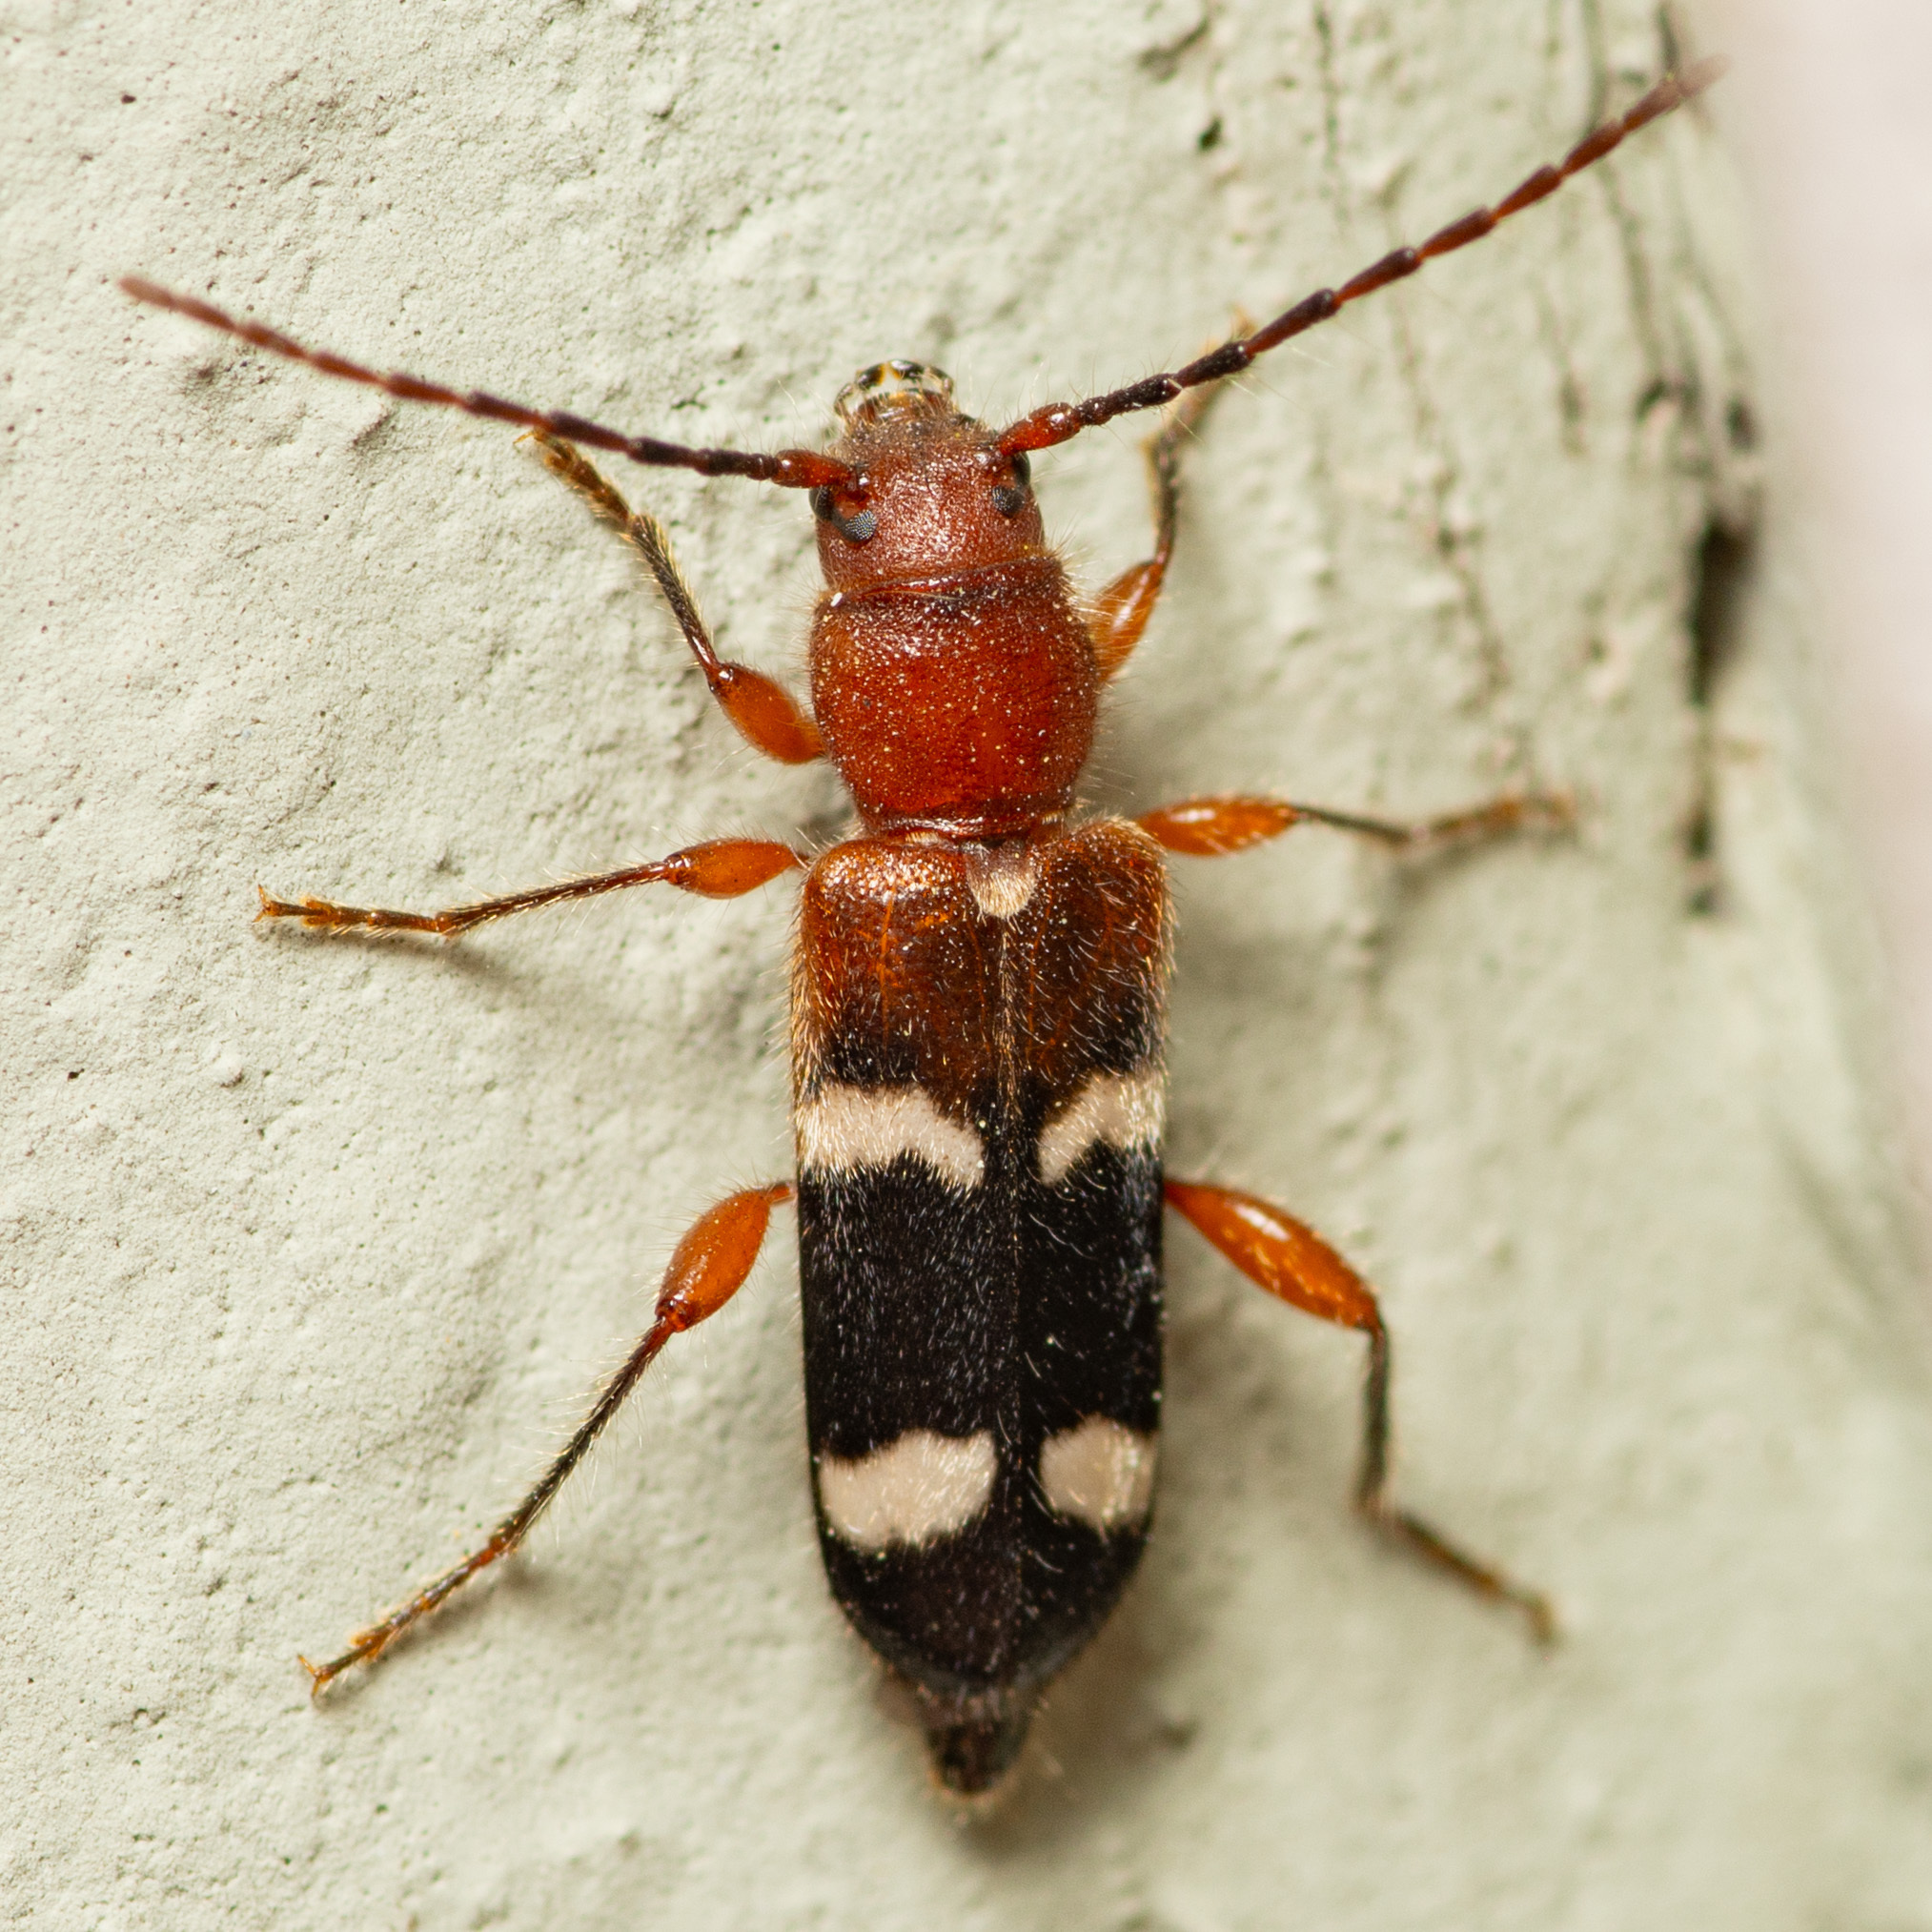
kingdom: Animalia
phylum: Arthropoda
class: Insecta
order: Coleoptera
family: Cerambycidae
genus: Phymatodes
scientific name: Phymatodes varius
